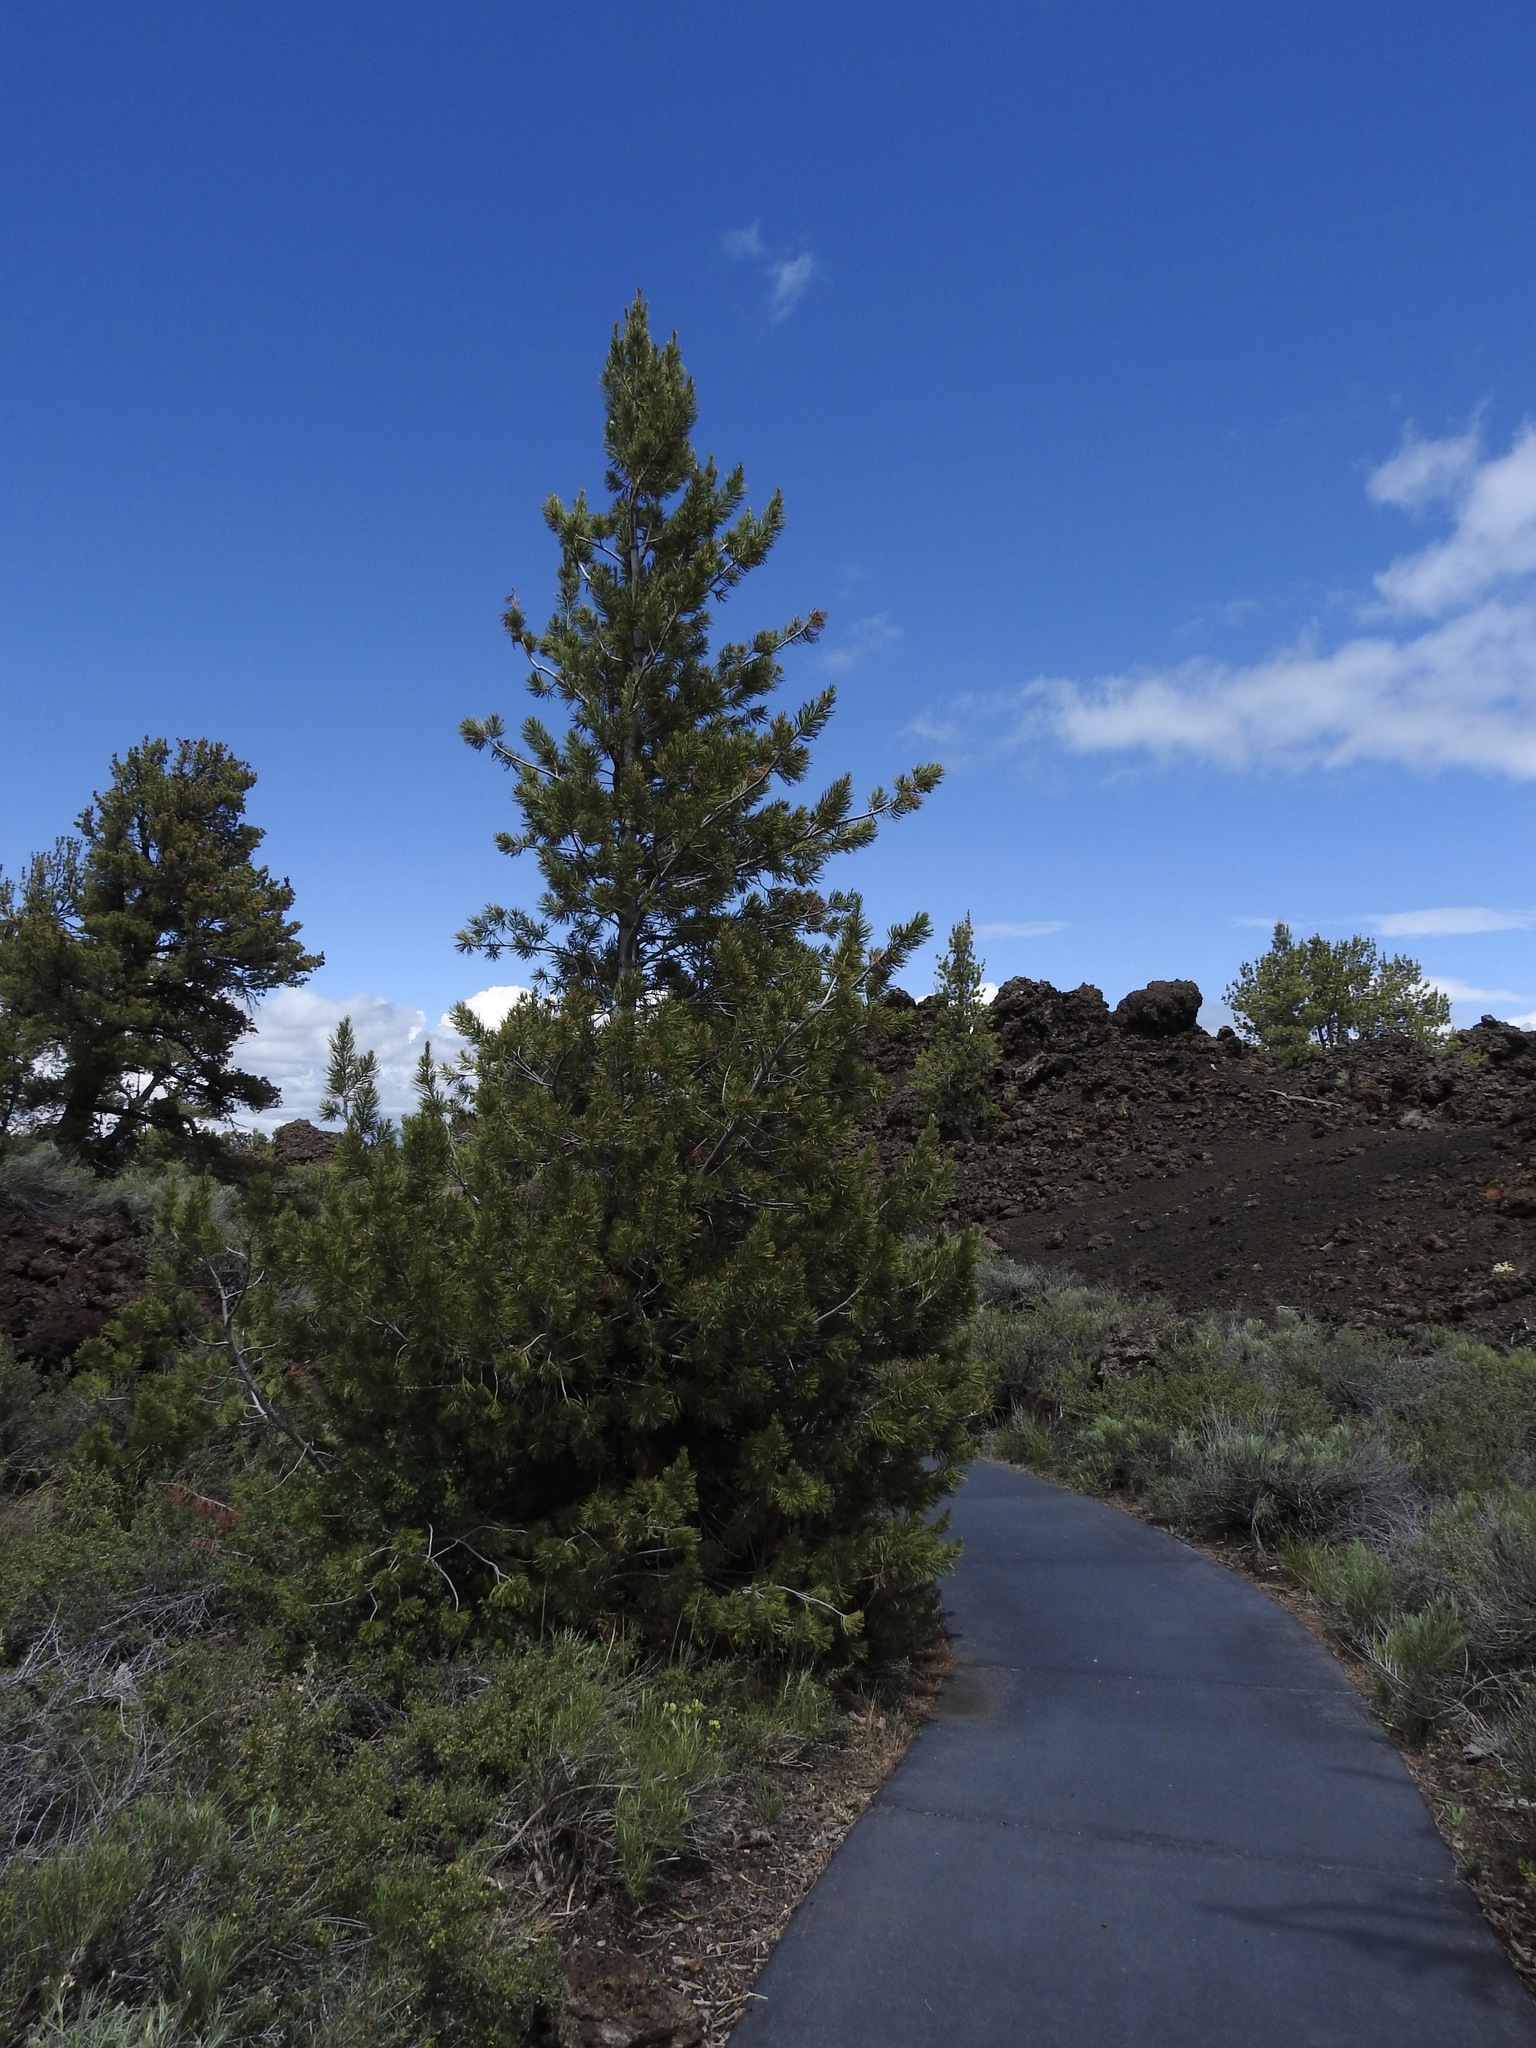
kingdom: Plantae
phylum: Tracheophyta
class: Pinopsida
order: Pinales
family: Pinaceae
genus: Pinus
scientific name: Pinus flexilis
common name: Limber pine
